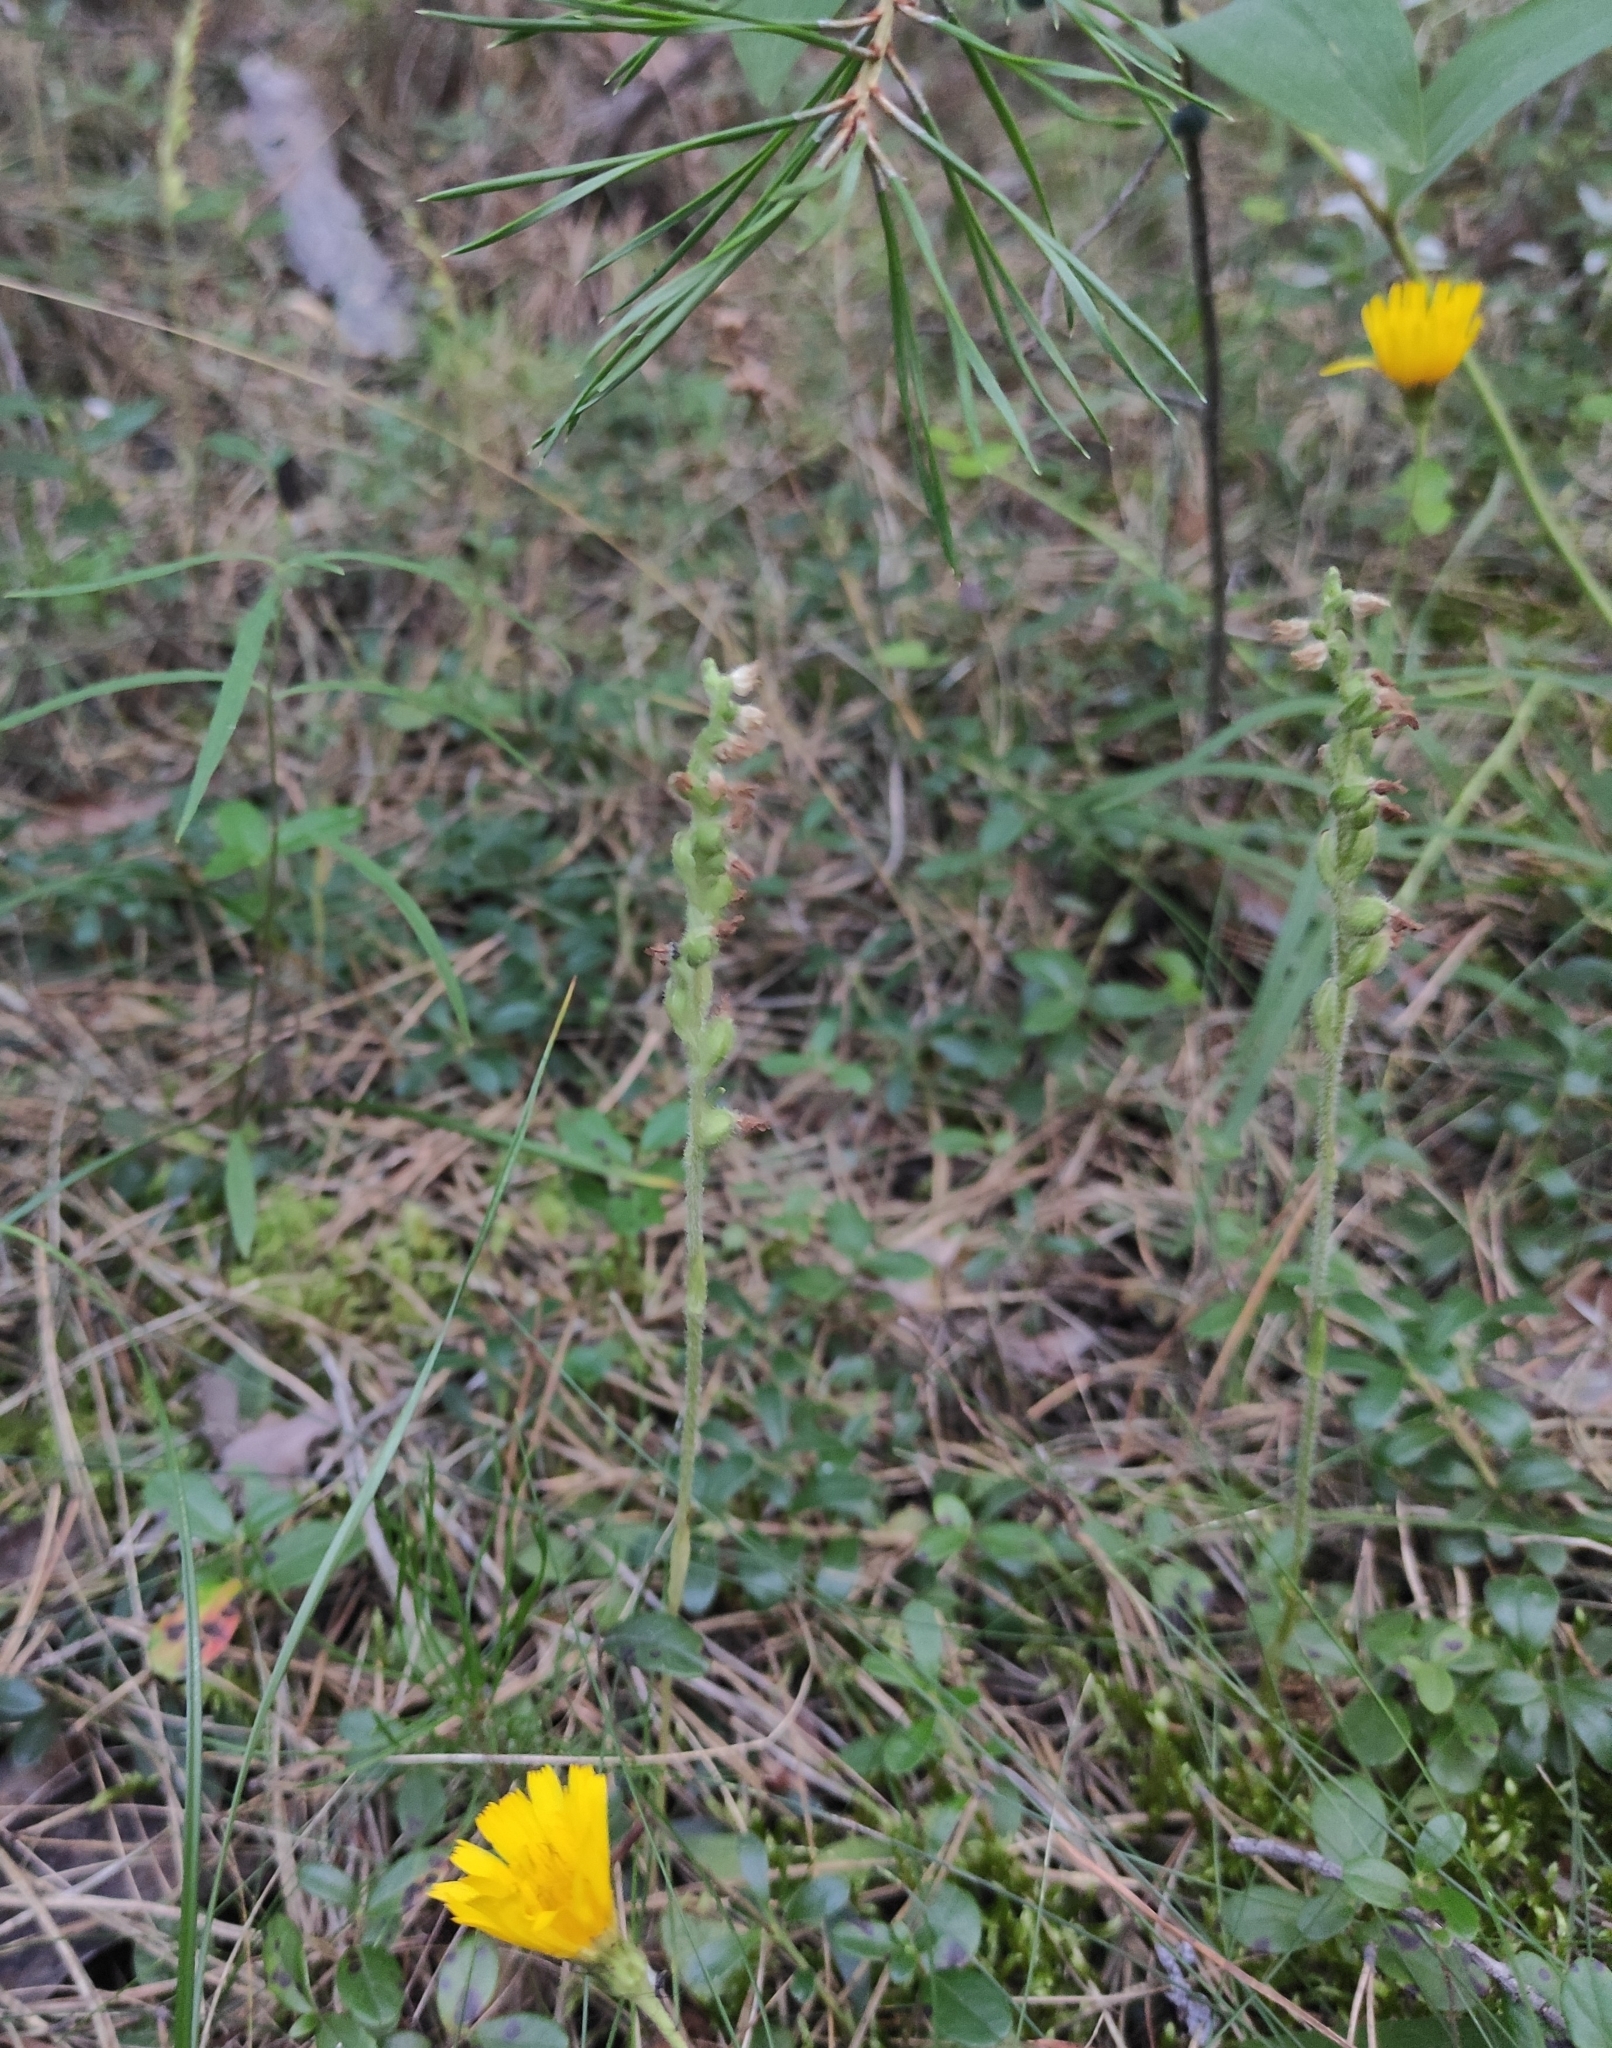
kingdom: Plantae
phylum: Tracheophyta
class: Liliopsida
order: Asparagales
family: Orchidaceae
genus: Goodyera
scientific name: Goodyera repens
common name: Creeping lady's-tresses
